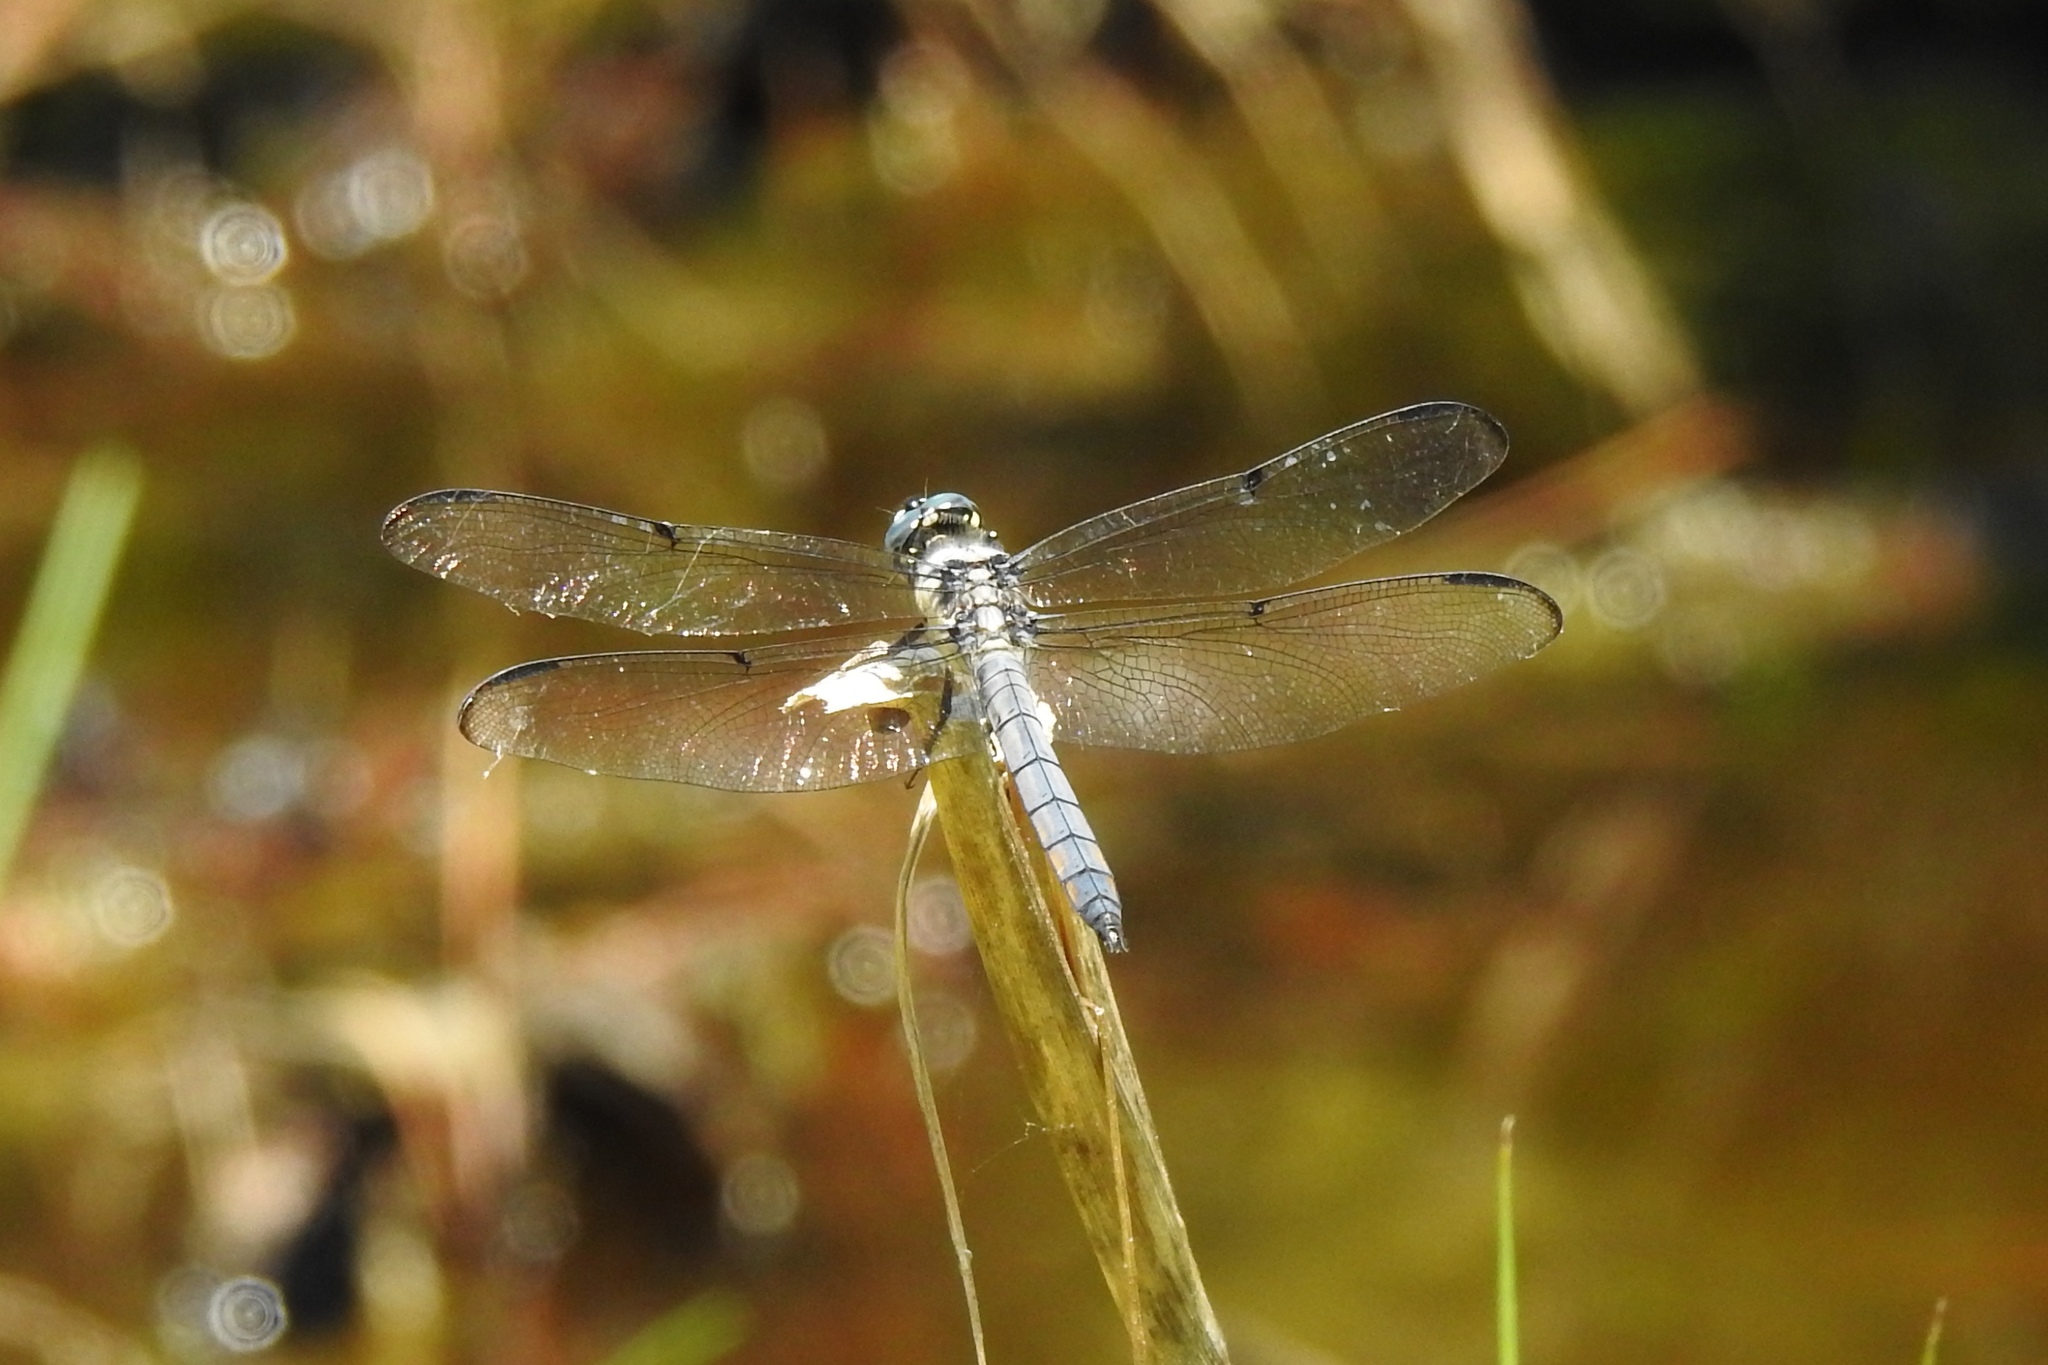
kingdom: Animalia
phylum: Arthropoda
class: Insecta
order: Odonata
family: Libellulidae
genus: Libellula
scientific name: Libellula vibrans
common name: Great blue skimmer
